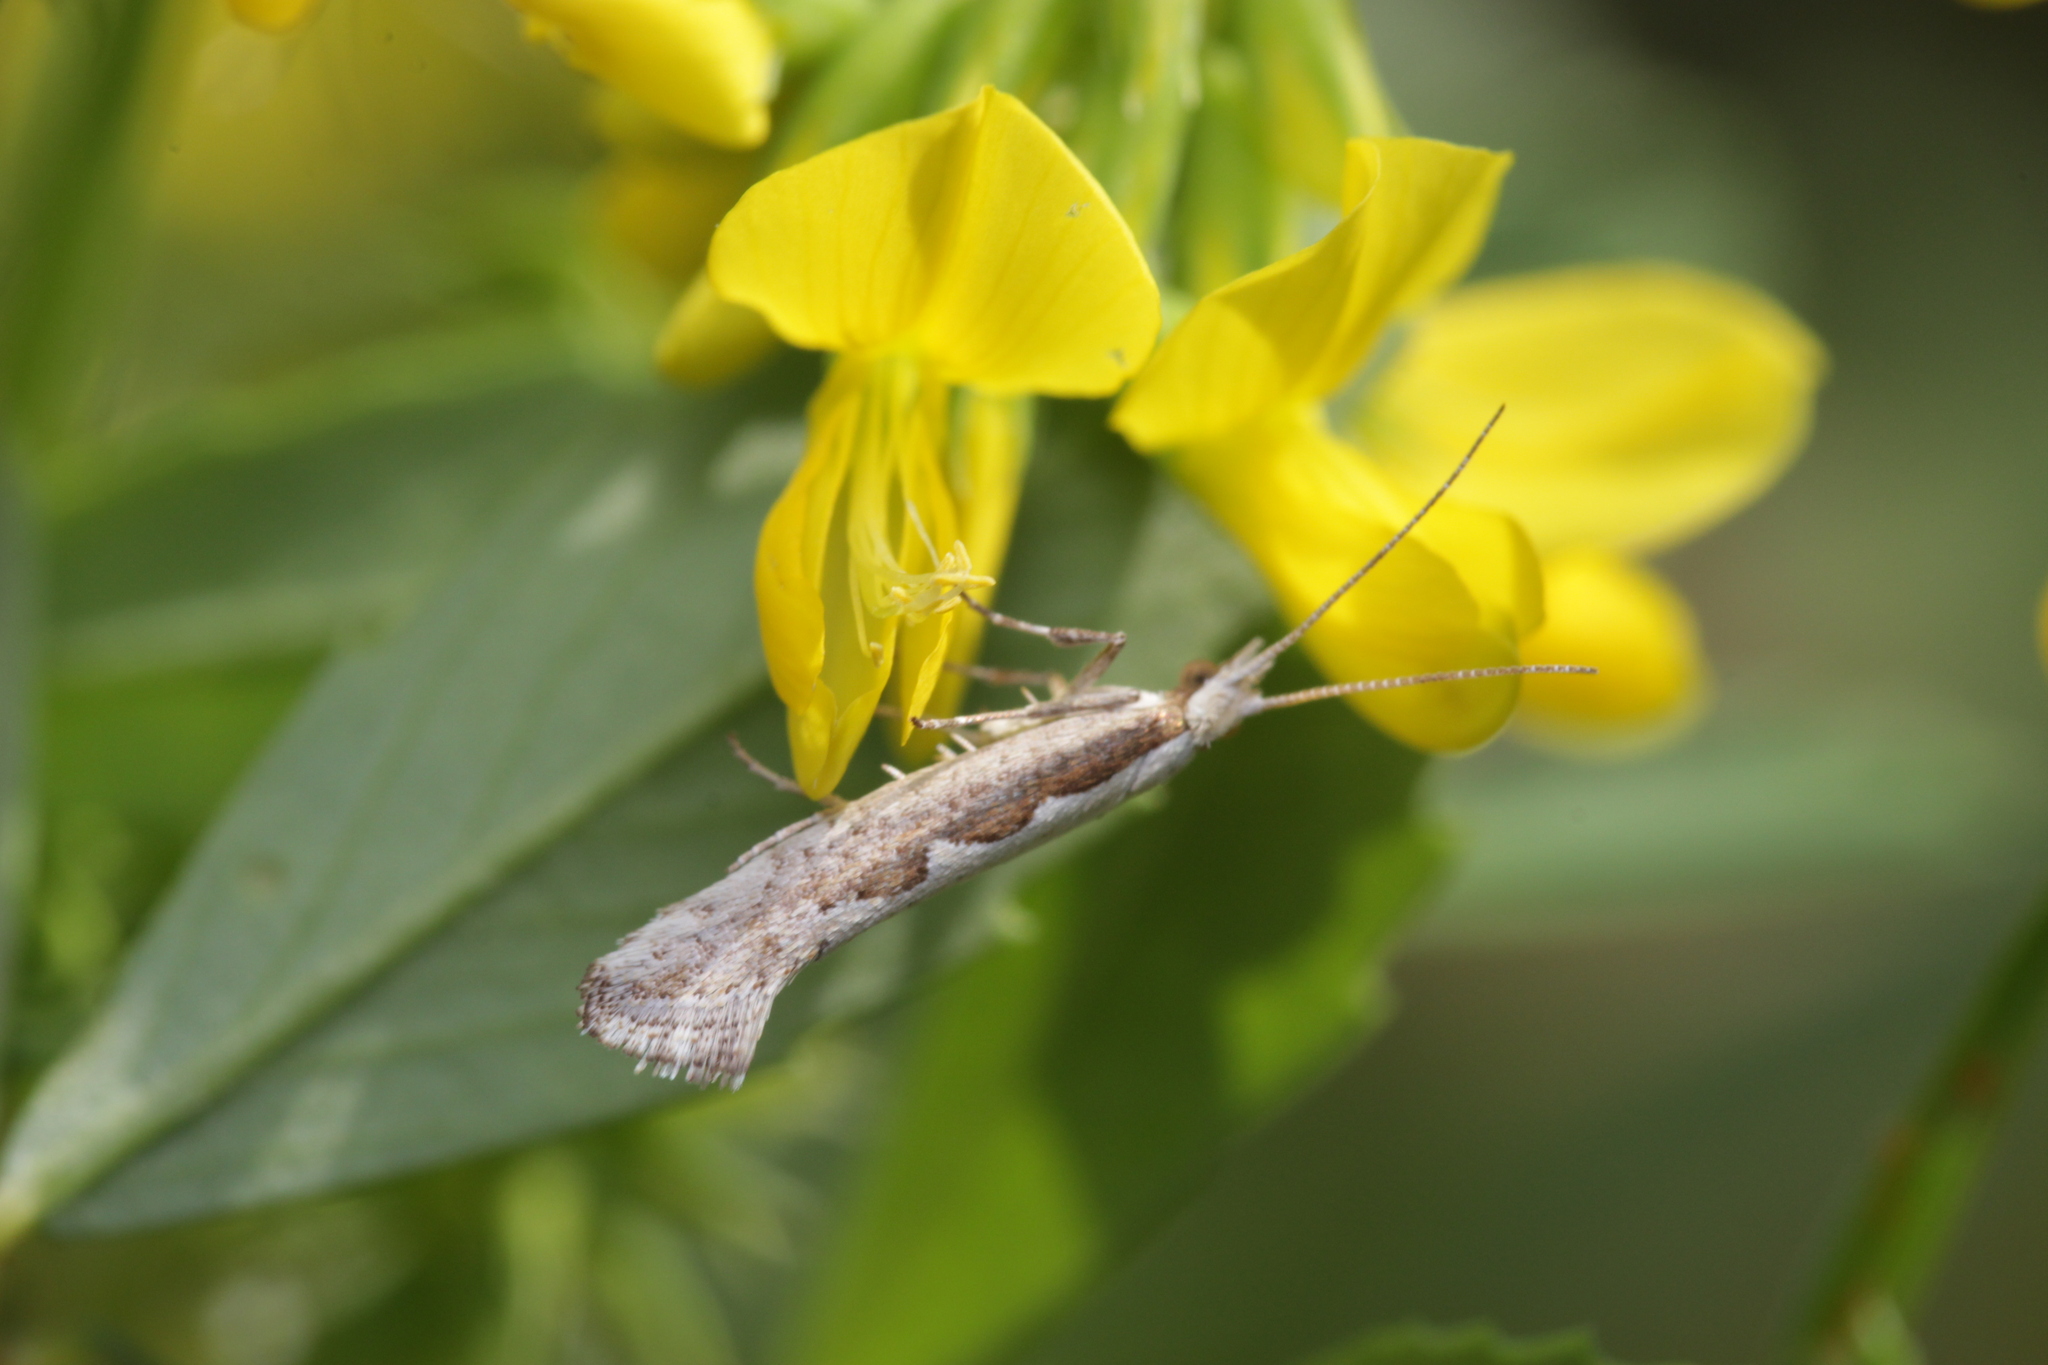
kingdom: Animalia
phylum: Arthropoda
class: Insecta
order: Lepidoptera
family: Plutellidae
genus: Plutella
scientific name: Plutella xylostella
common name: Diamond-back moth
